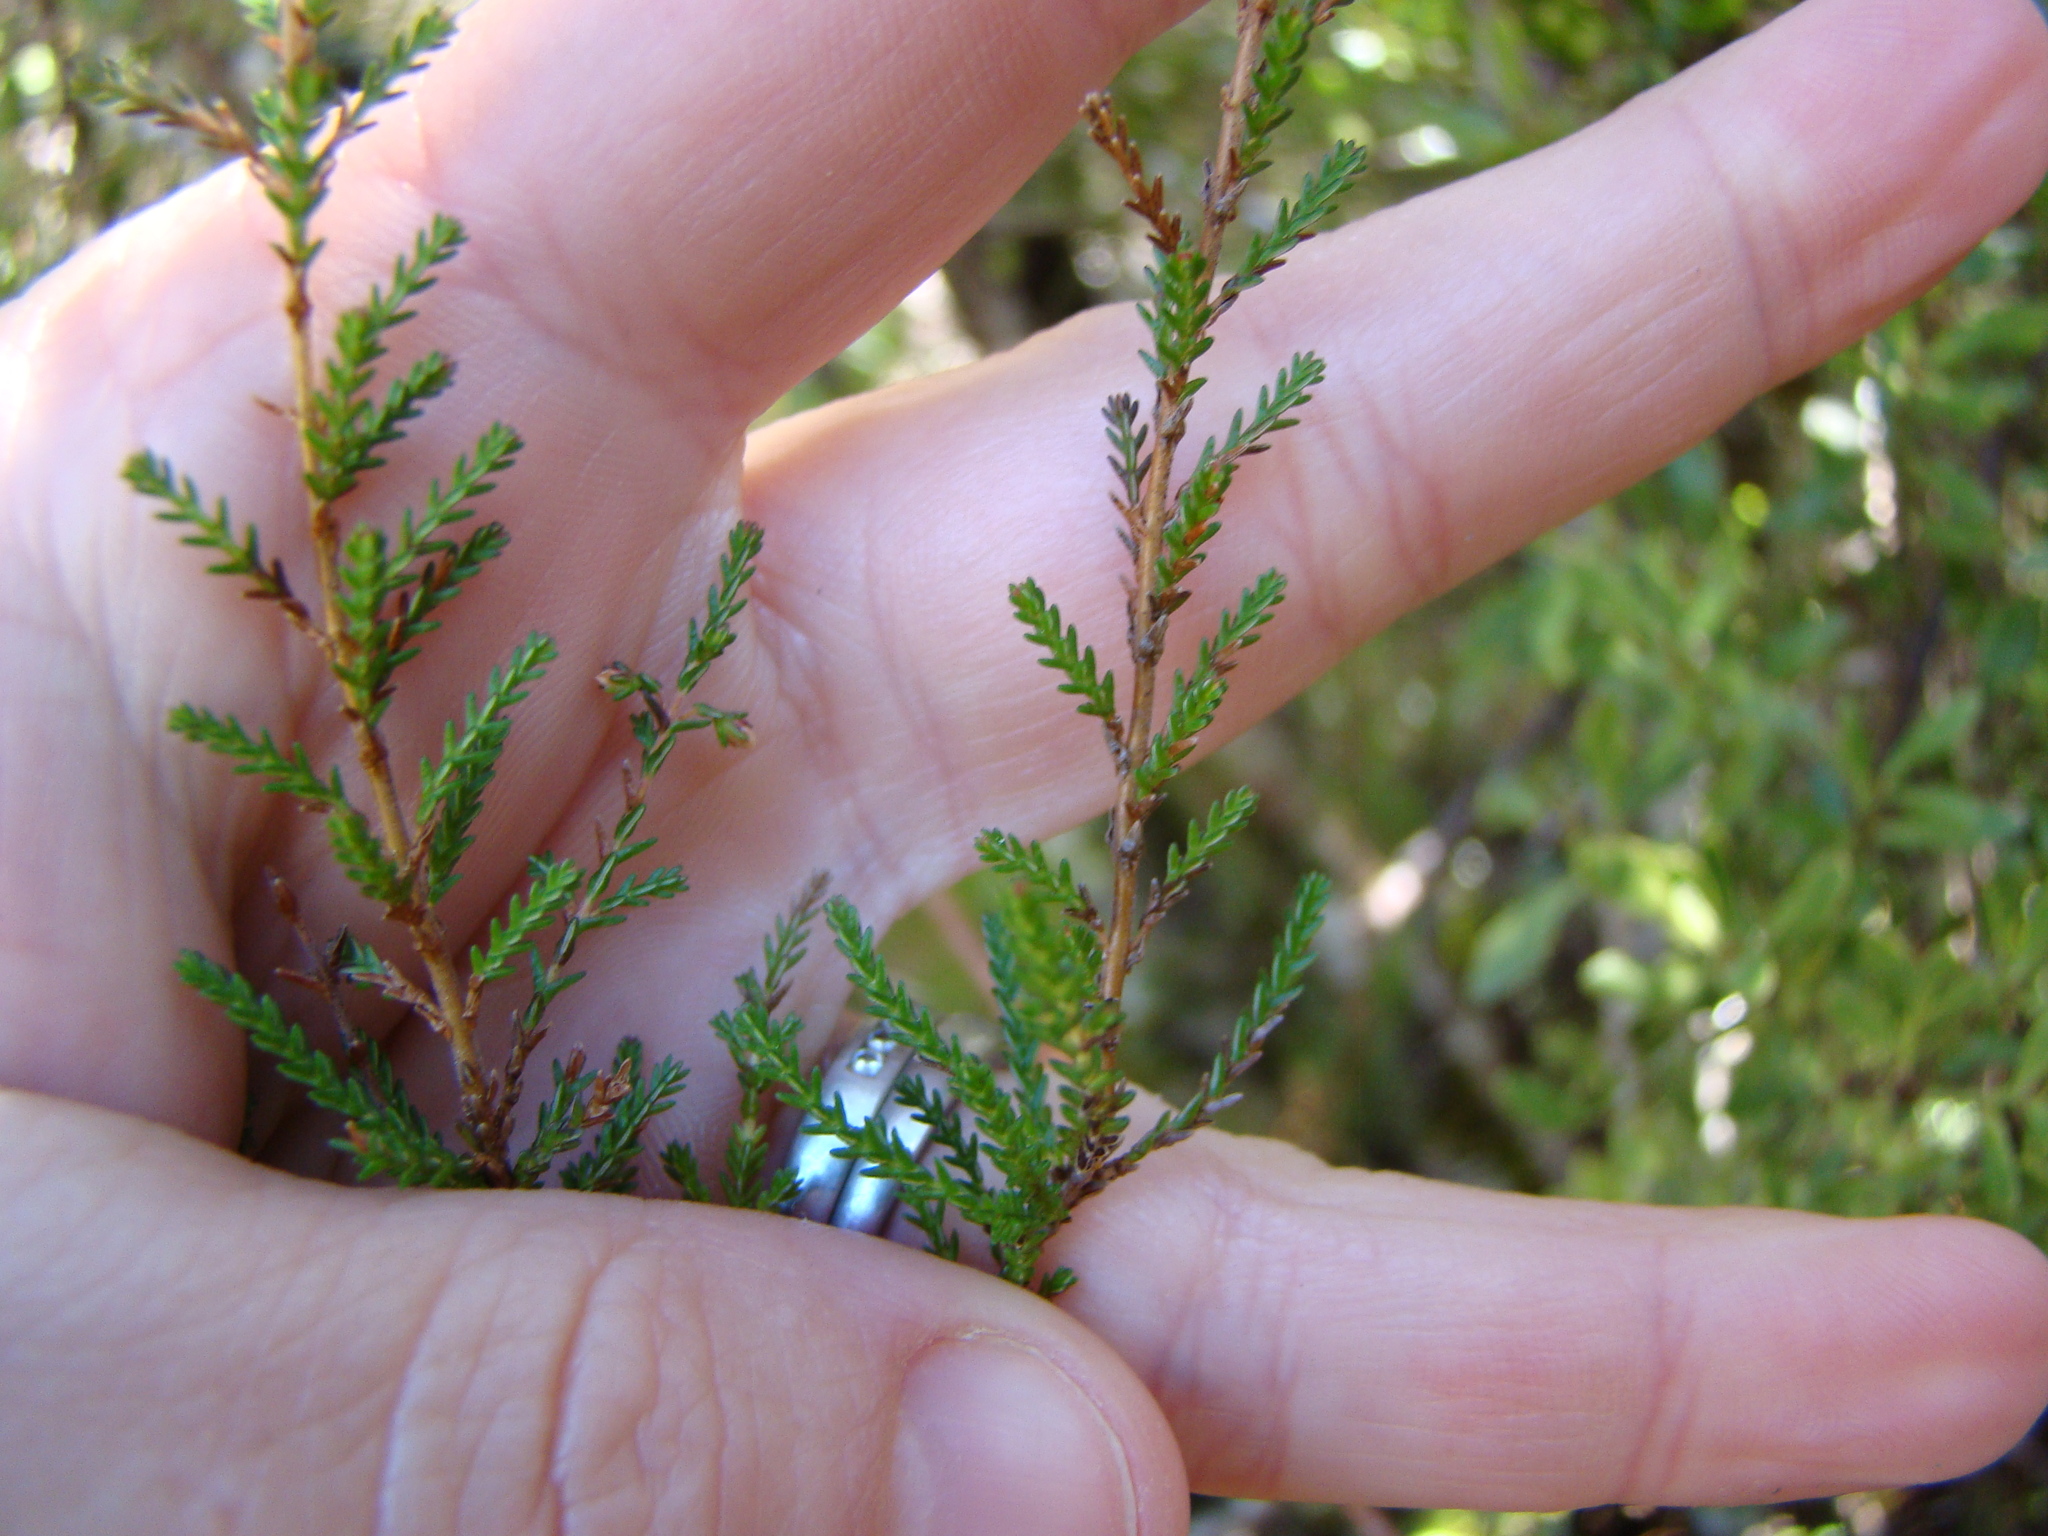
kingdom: Plantae
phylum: Tracheophyta
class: Magnoliopsida
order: Ericales
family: Ericaceae
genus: Calluna
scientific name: Calluna vulgaris
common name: Heather
